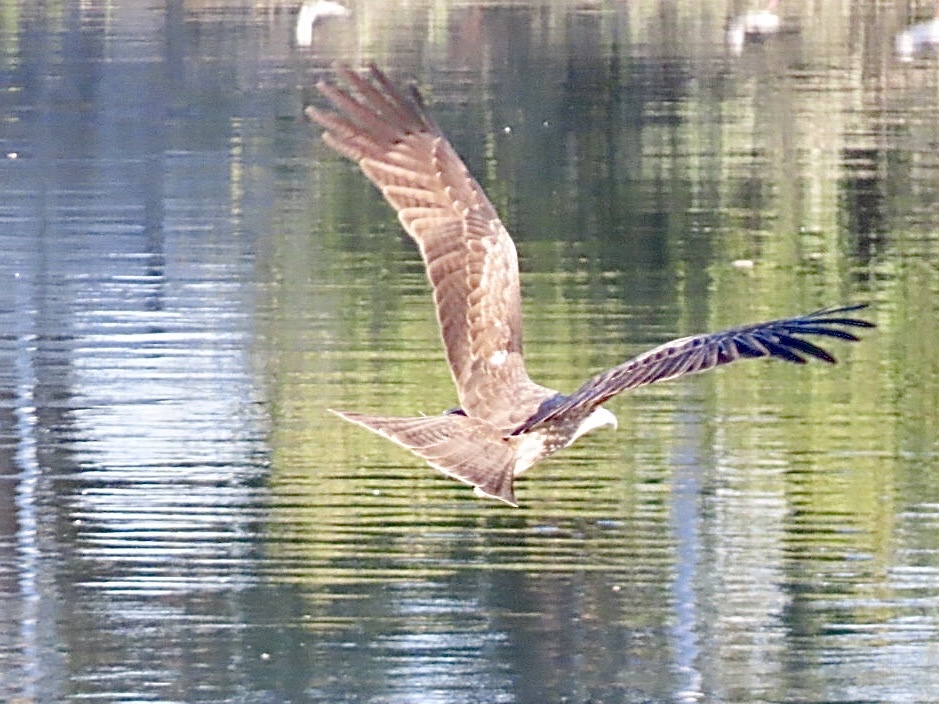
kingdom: Animalia
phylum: Chordata
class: Aves
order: Accipitriformes
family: Accipitridae
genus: Milvus
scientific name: Milvus migrans
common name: Black kite
